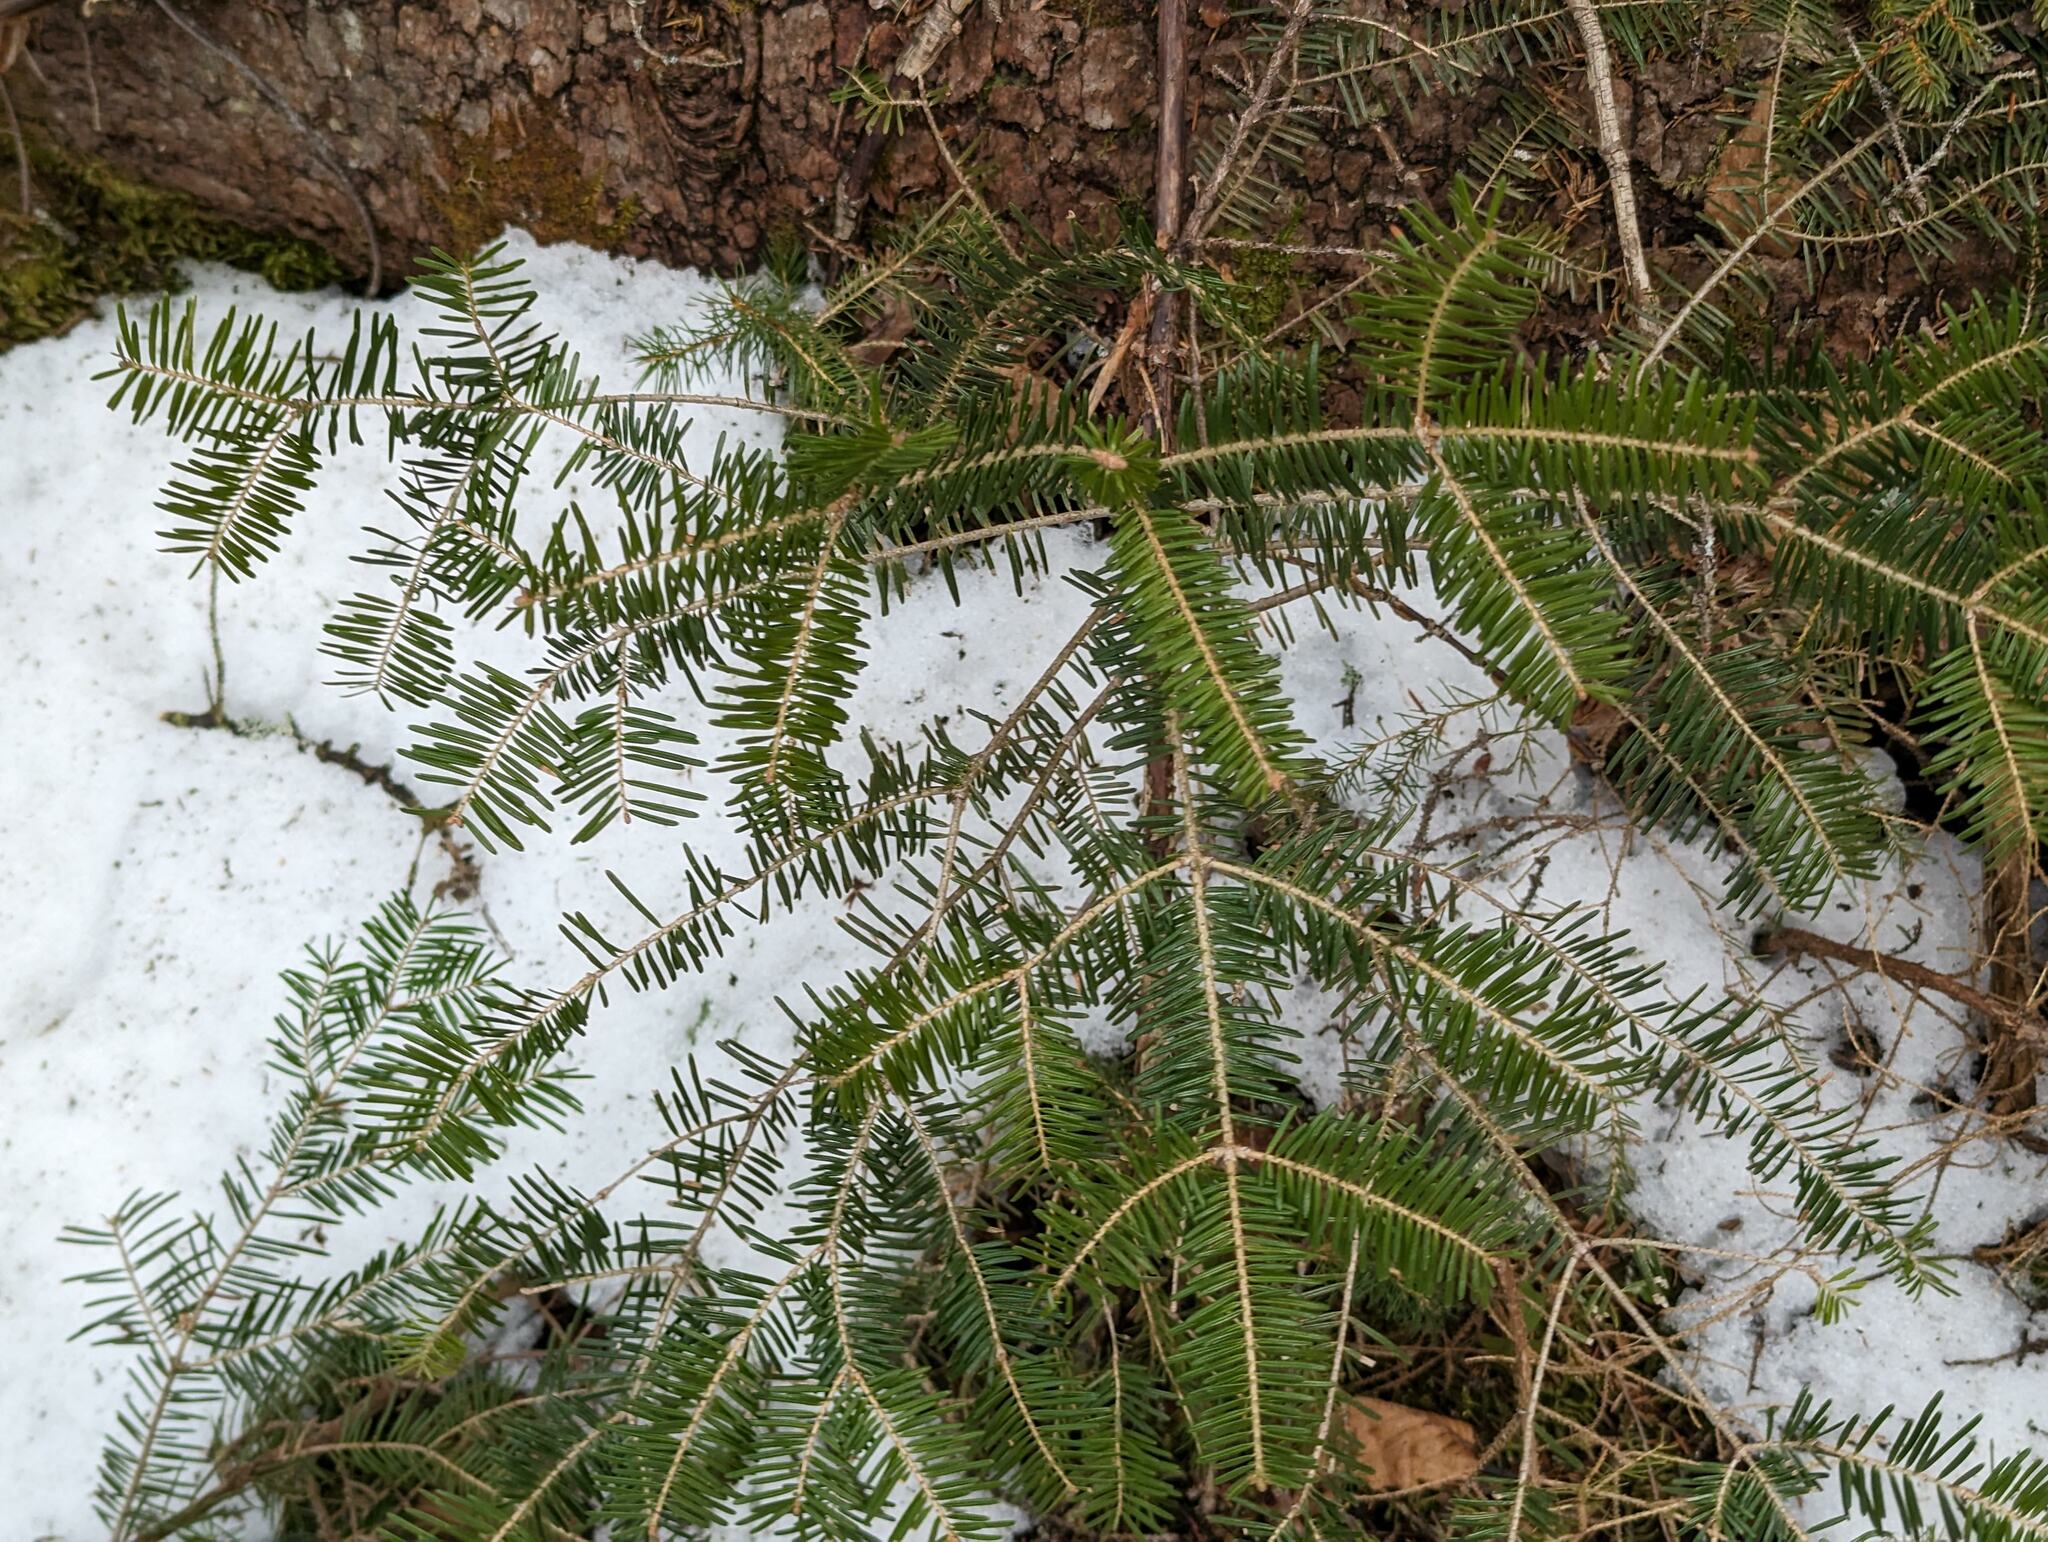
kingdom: Plantae
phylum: Tracheophyta
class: Pinopsida
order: Pinales
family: Pinaceae
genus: Abies
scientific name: Abies balsamea
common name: Balsam fir
